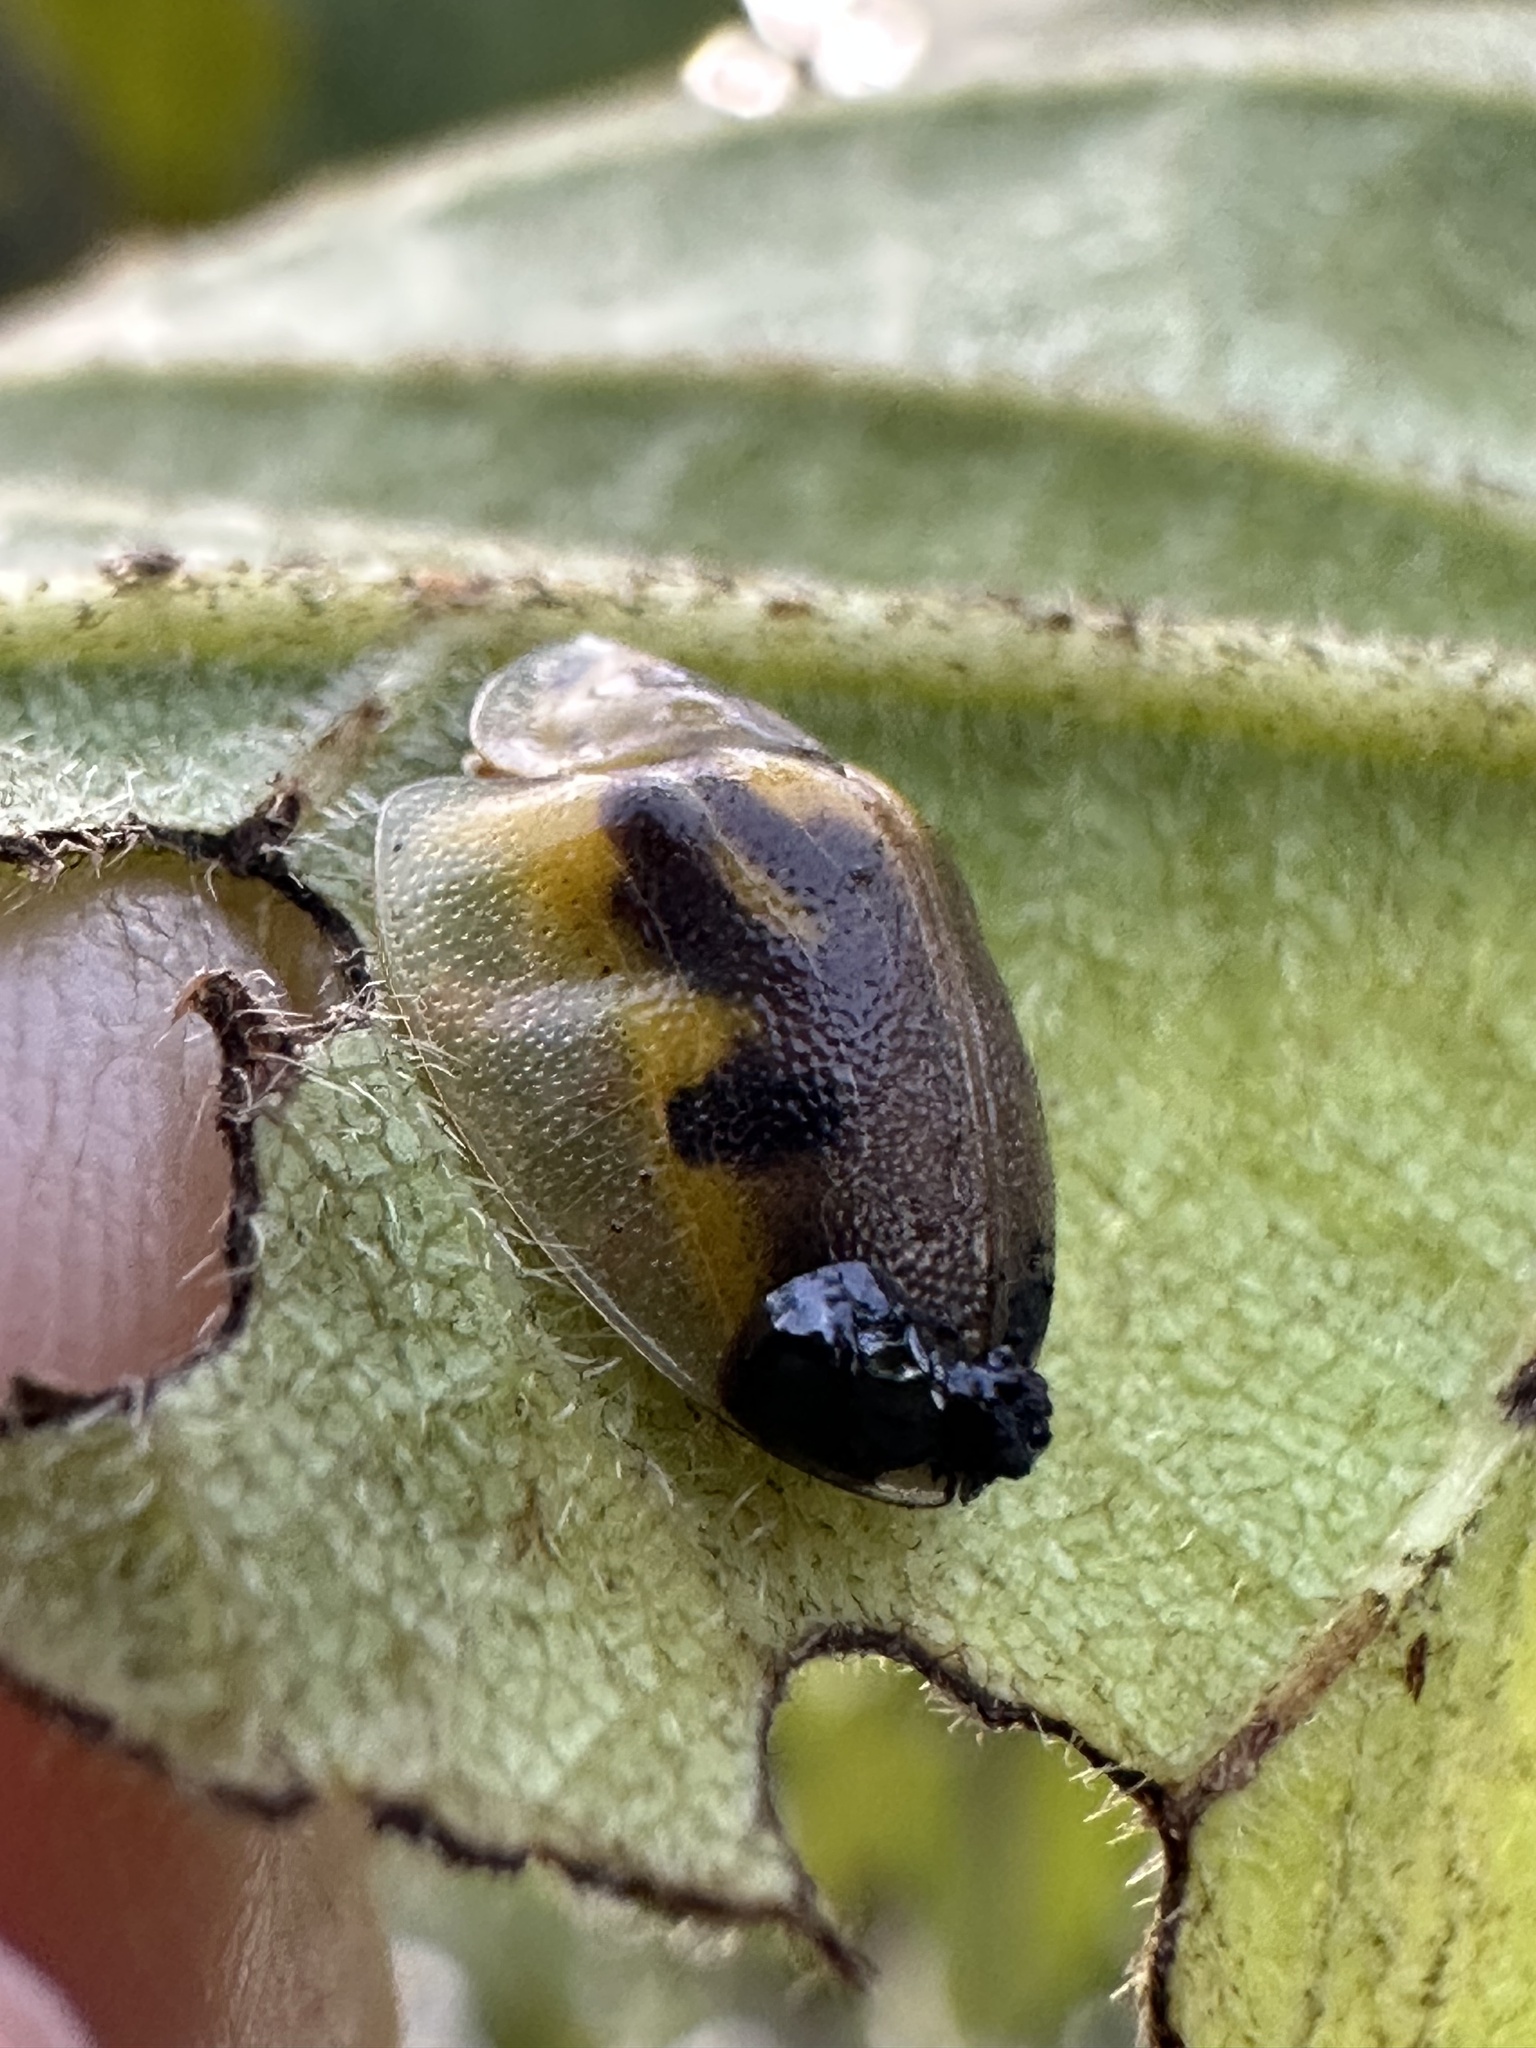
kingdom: Animalia
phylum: Arthropoda
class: Insecta
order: Coleoptera
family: Chrysomelidae
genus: Eurypepla
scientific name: Eurypepla calochroma
